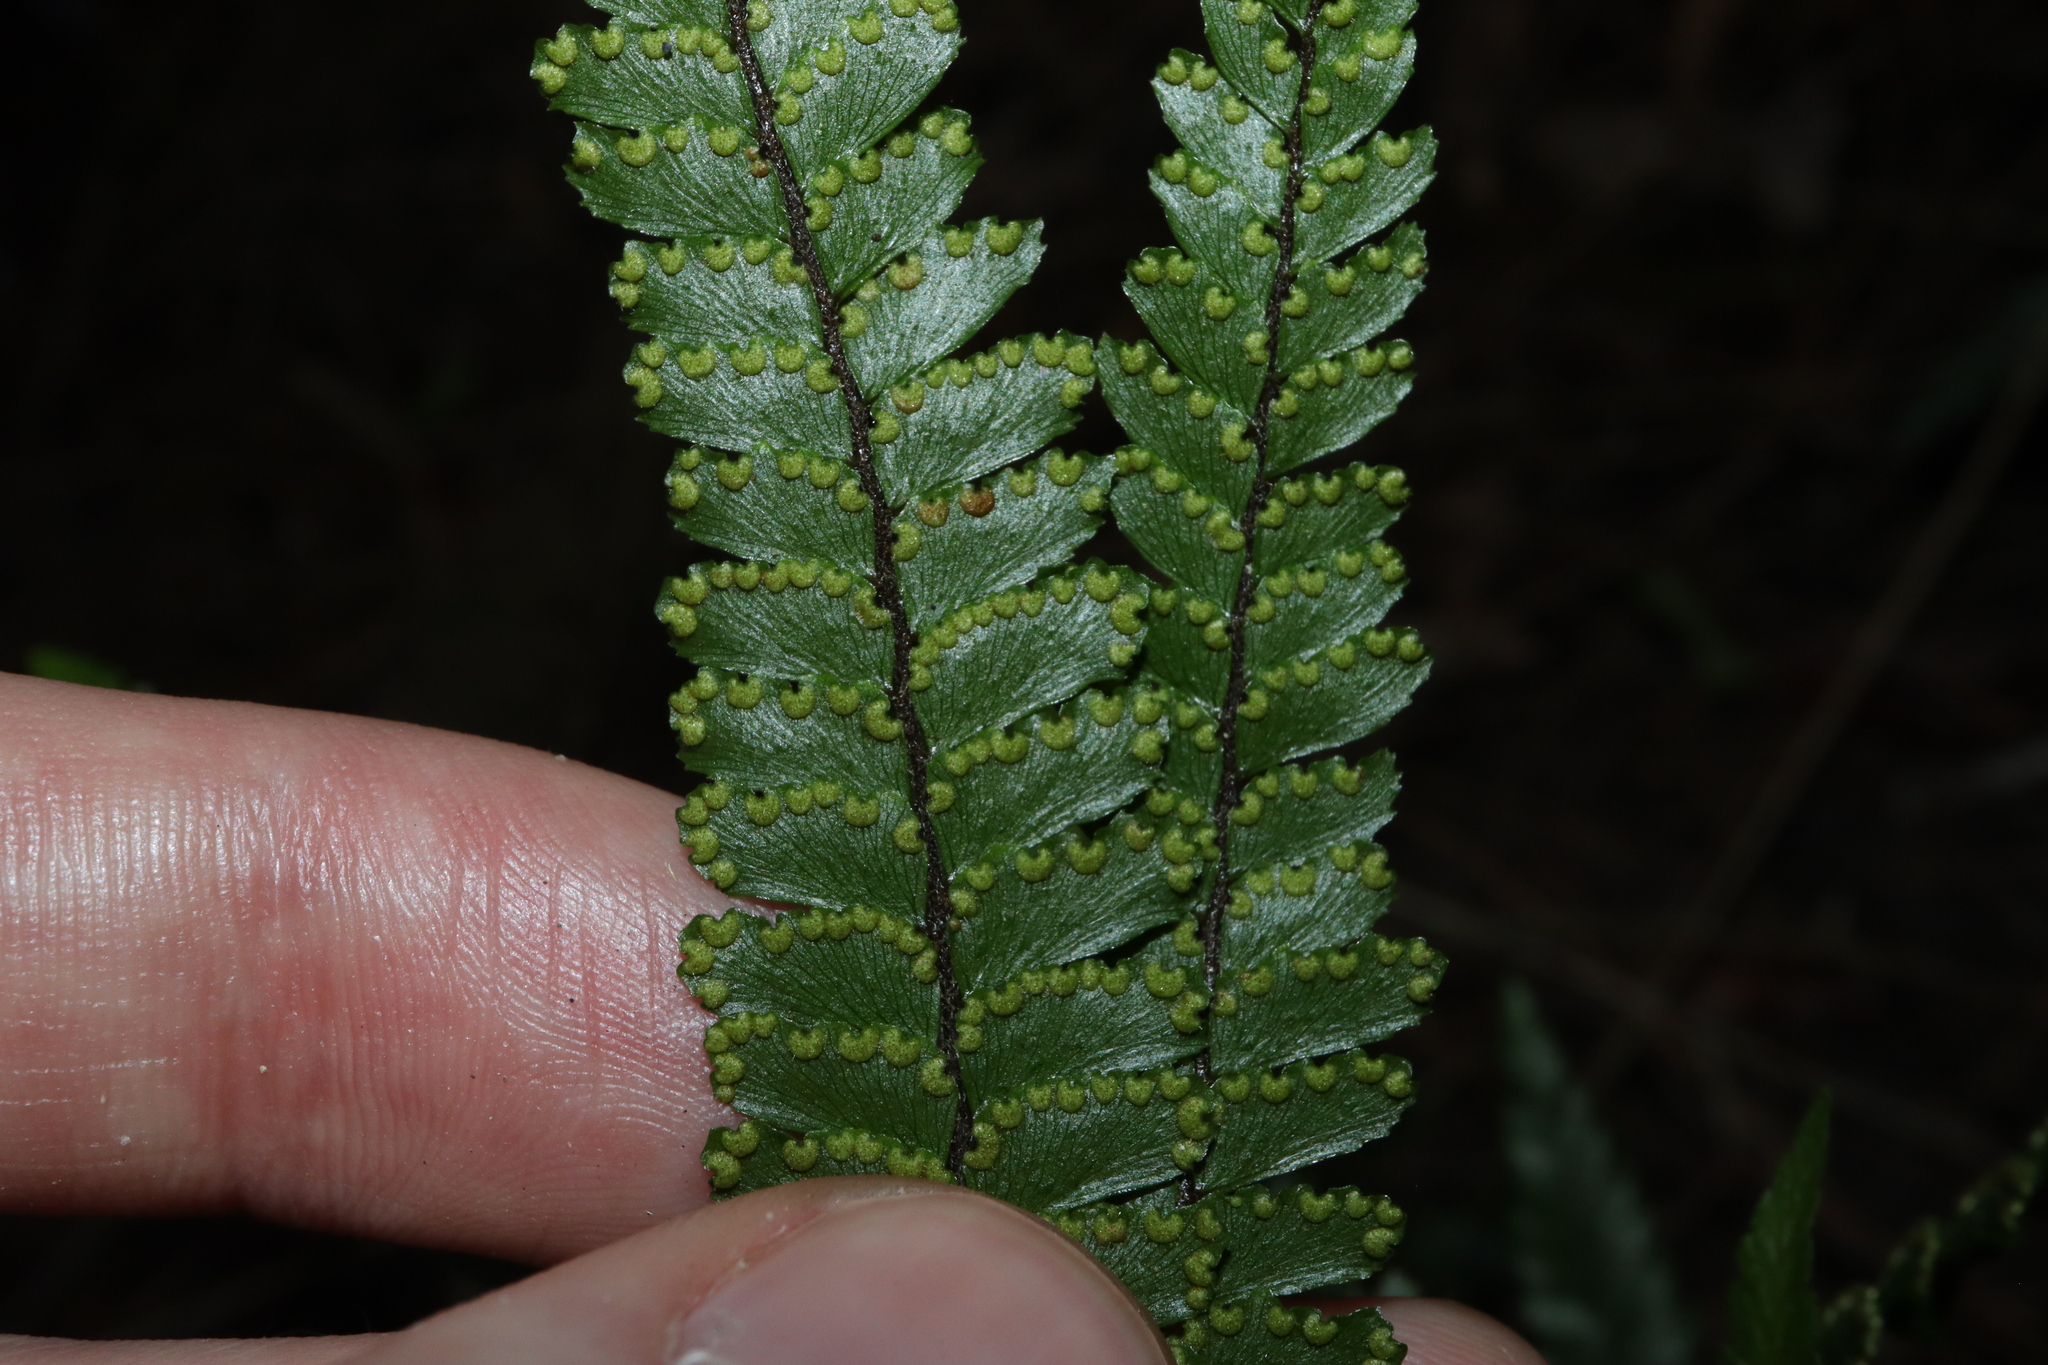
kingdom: Plantae
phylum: Tracheophyta
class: Polypodiopsida
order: Polypodiales
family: Pteridaceae
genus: Adiantum
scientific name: Adiantum hispidulum
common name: Rough maidenhair
